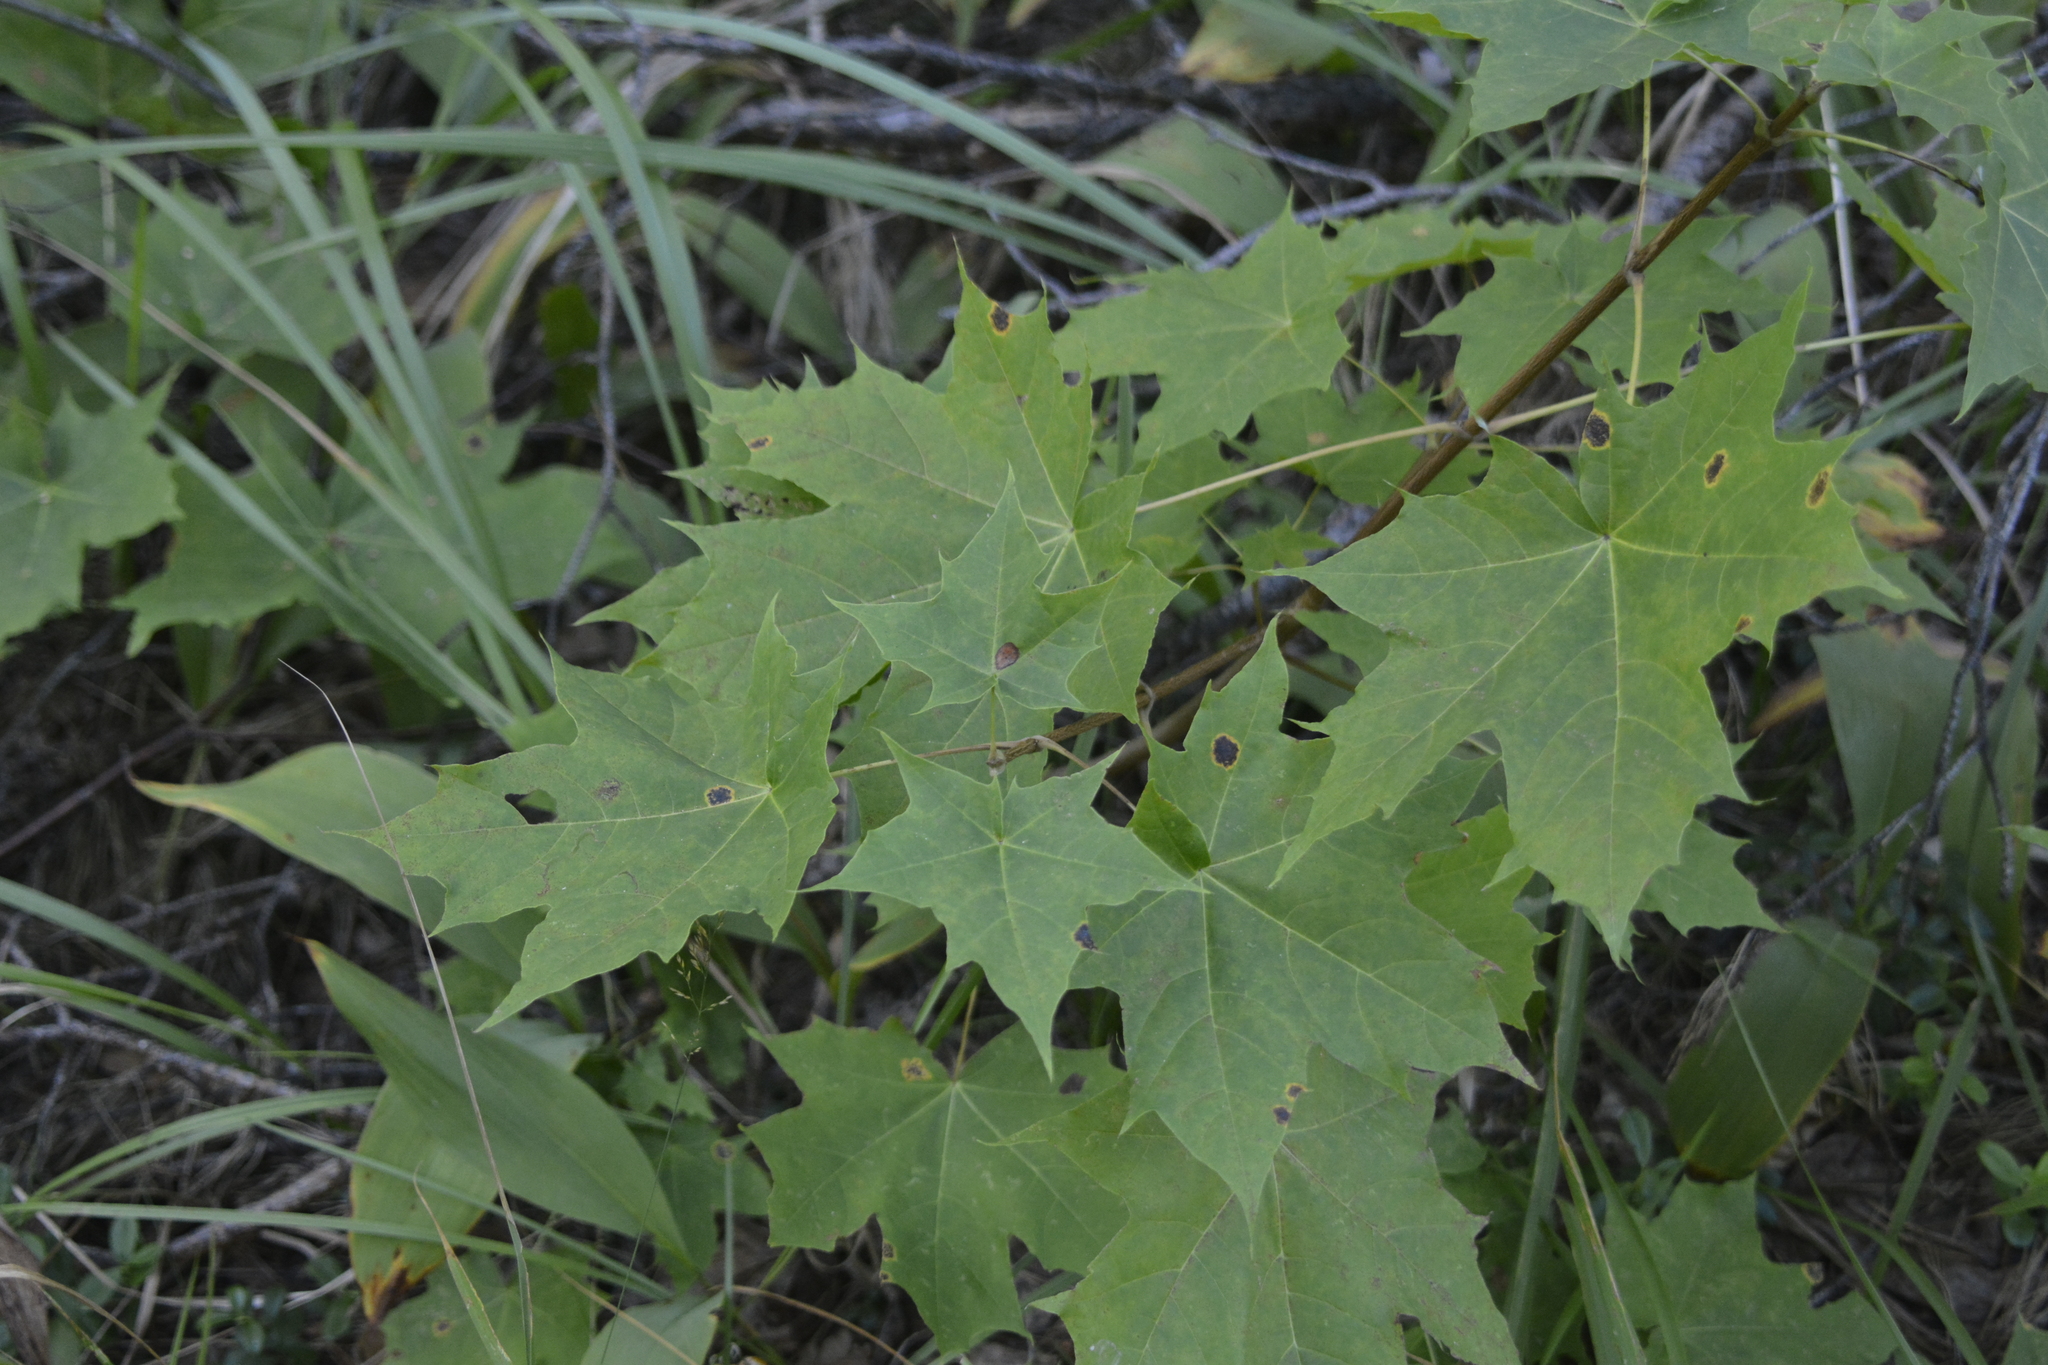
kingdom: Plantae
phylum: Tracheophyta
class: Magnoliopsida
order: Sapindales
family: Sapindaceae
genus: Acer
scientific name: Acer platanoides
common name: Norway maple
